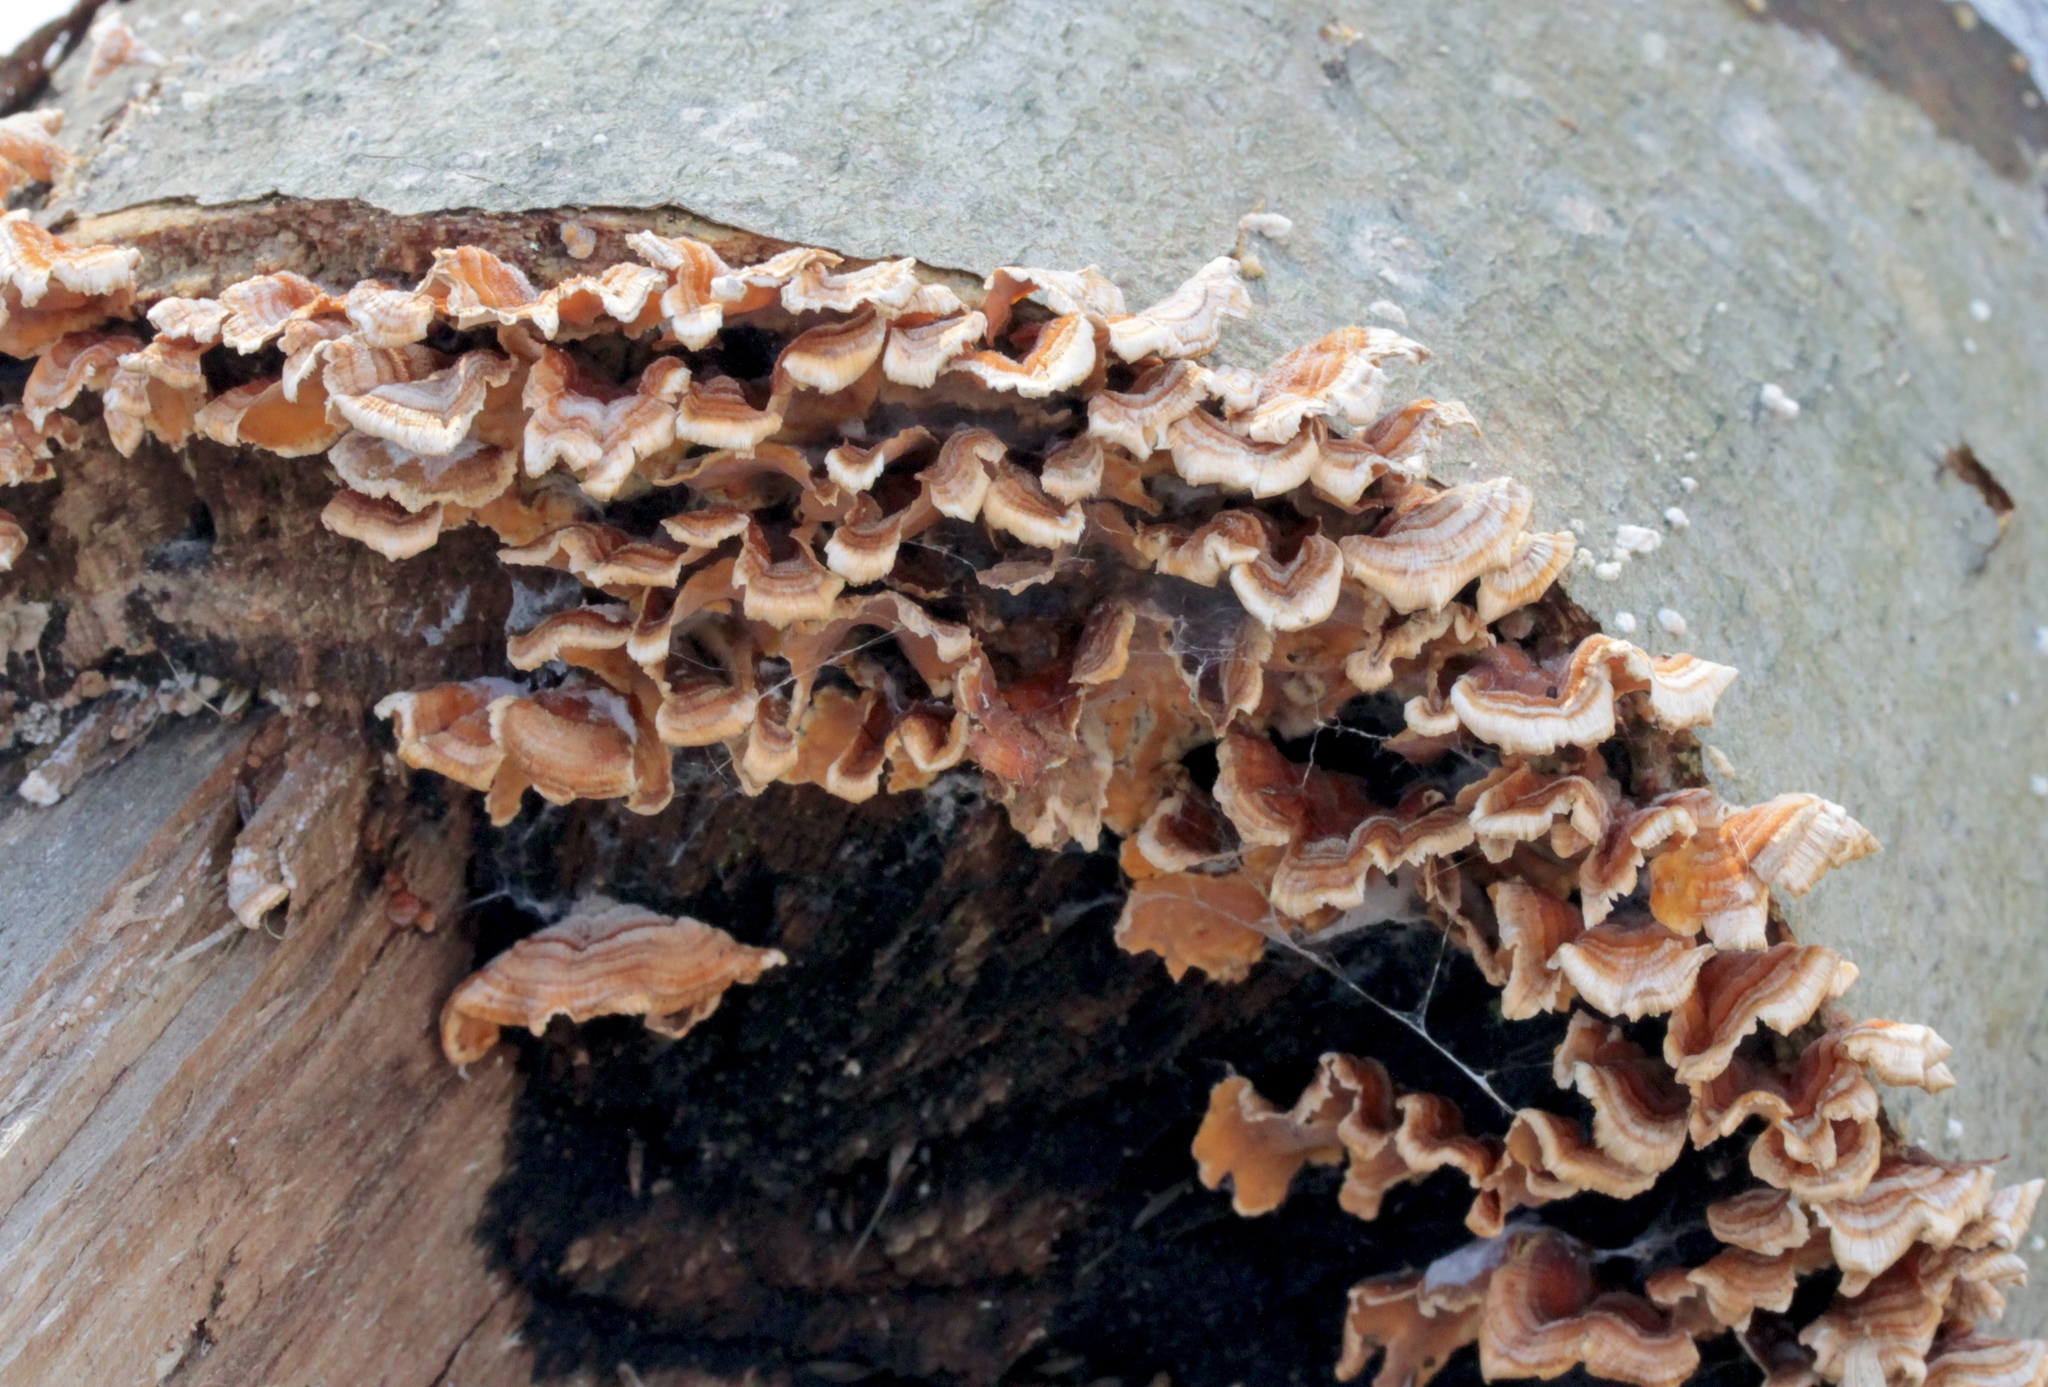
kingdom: Fungi
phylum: Basidiomycota
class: Agaricomycetes
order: Russulales
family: Stereaceae
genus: Stereum
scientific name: Stereum complicatum
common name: Crowded parchment
